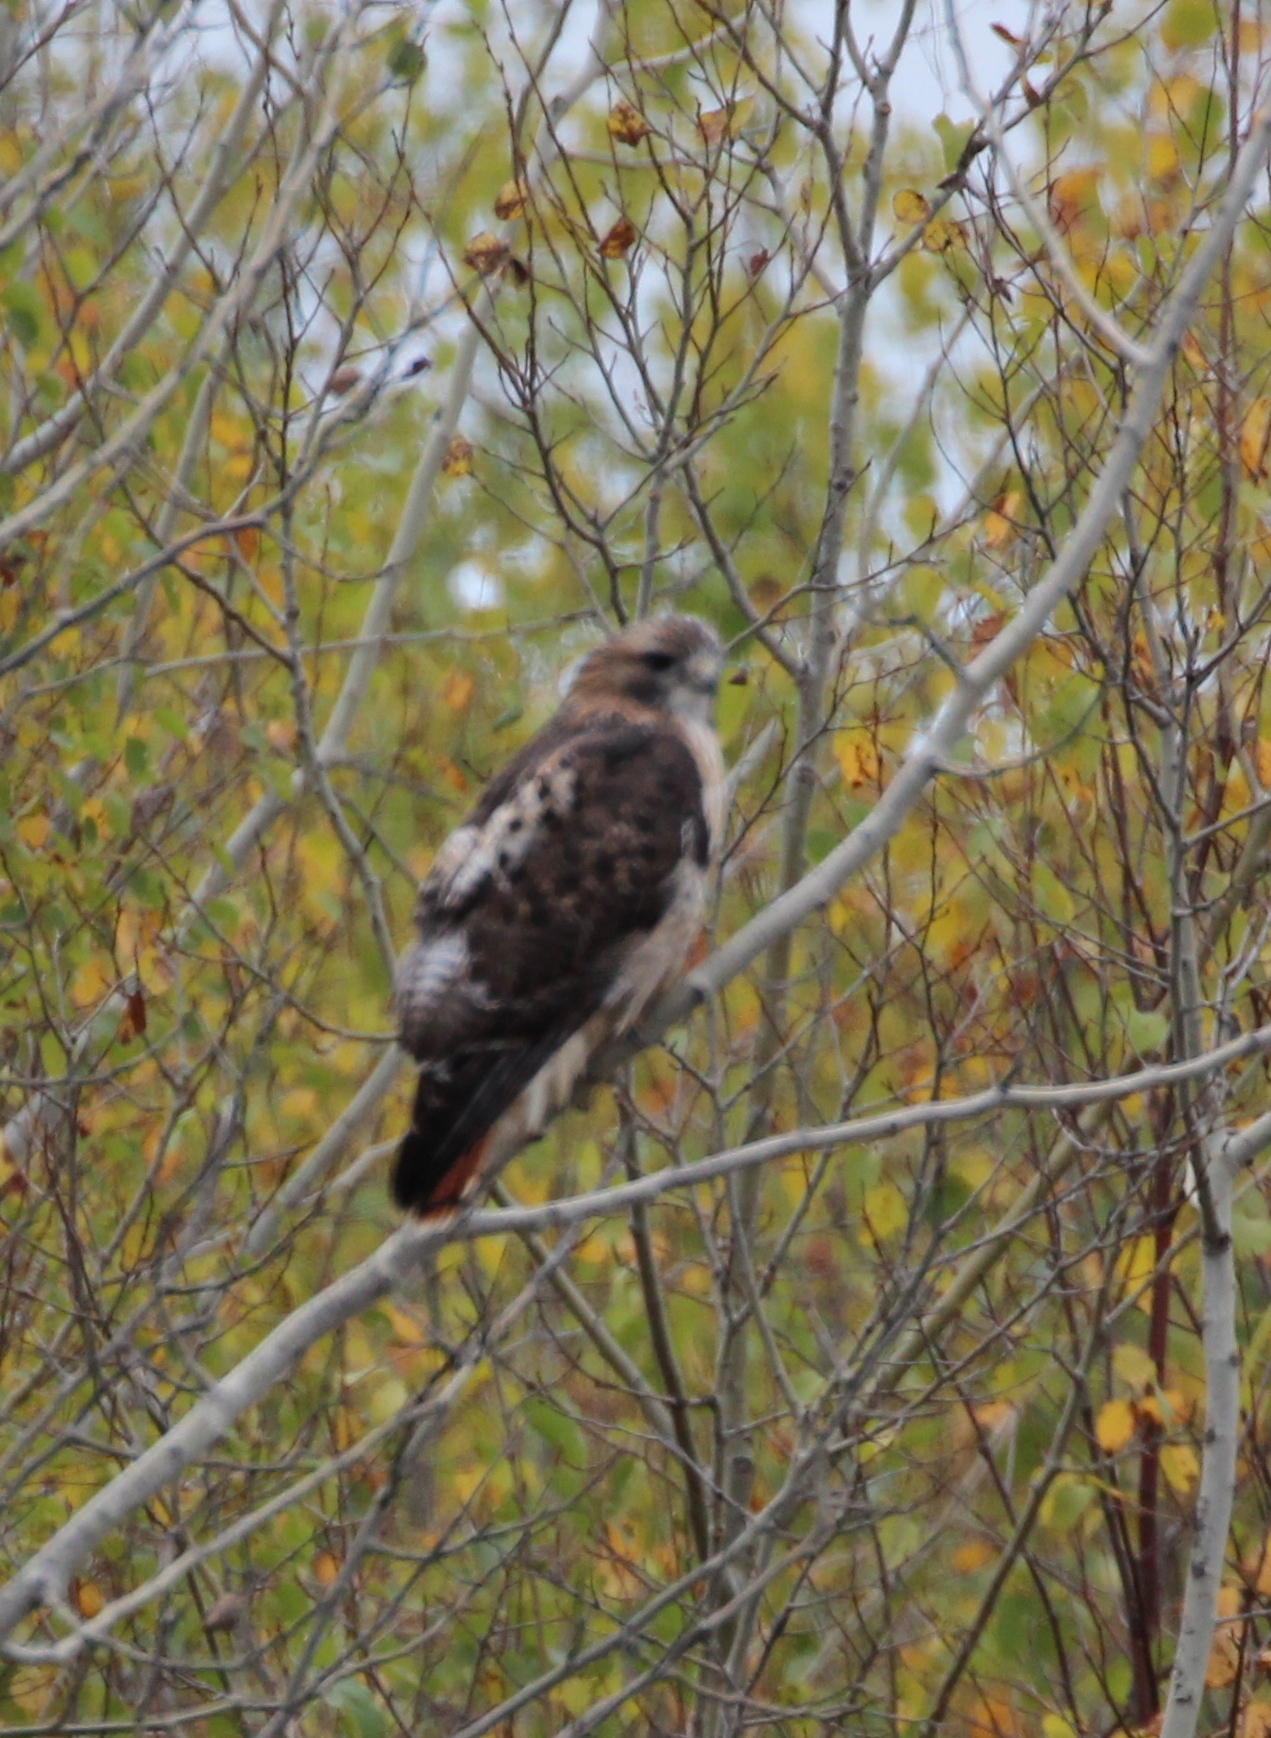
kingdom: Animalia
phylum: Chordata
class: Aves
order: Accipitriformes
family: Accipitridae
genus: Buteo
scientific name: Buteo jamaicensis
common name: Red-tailed hawk
